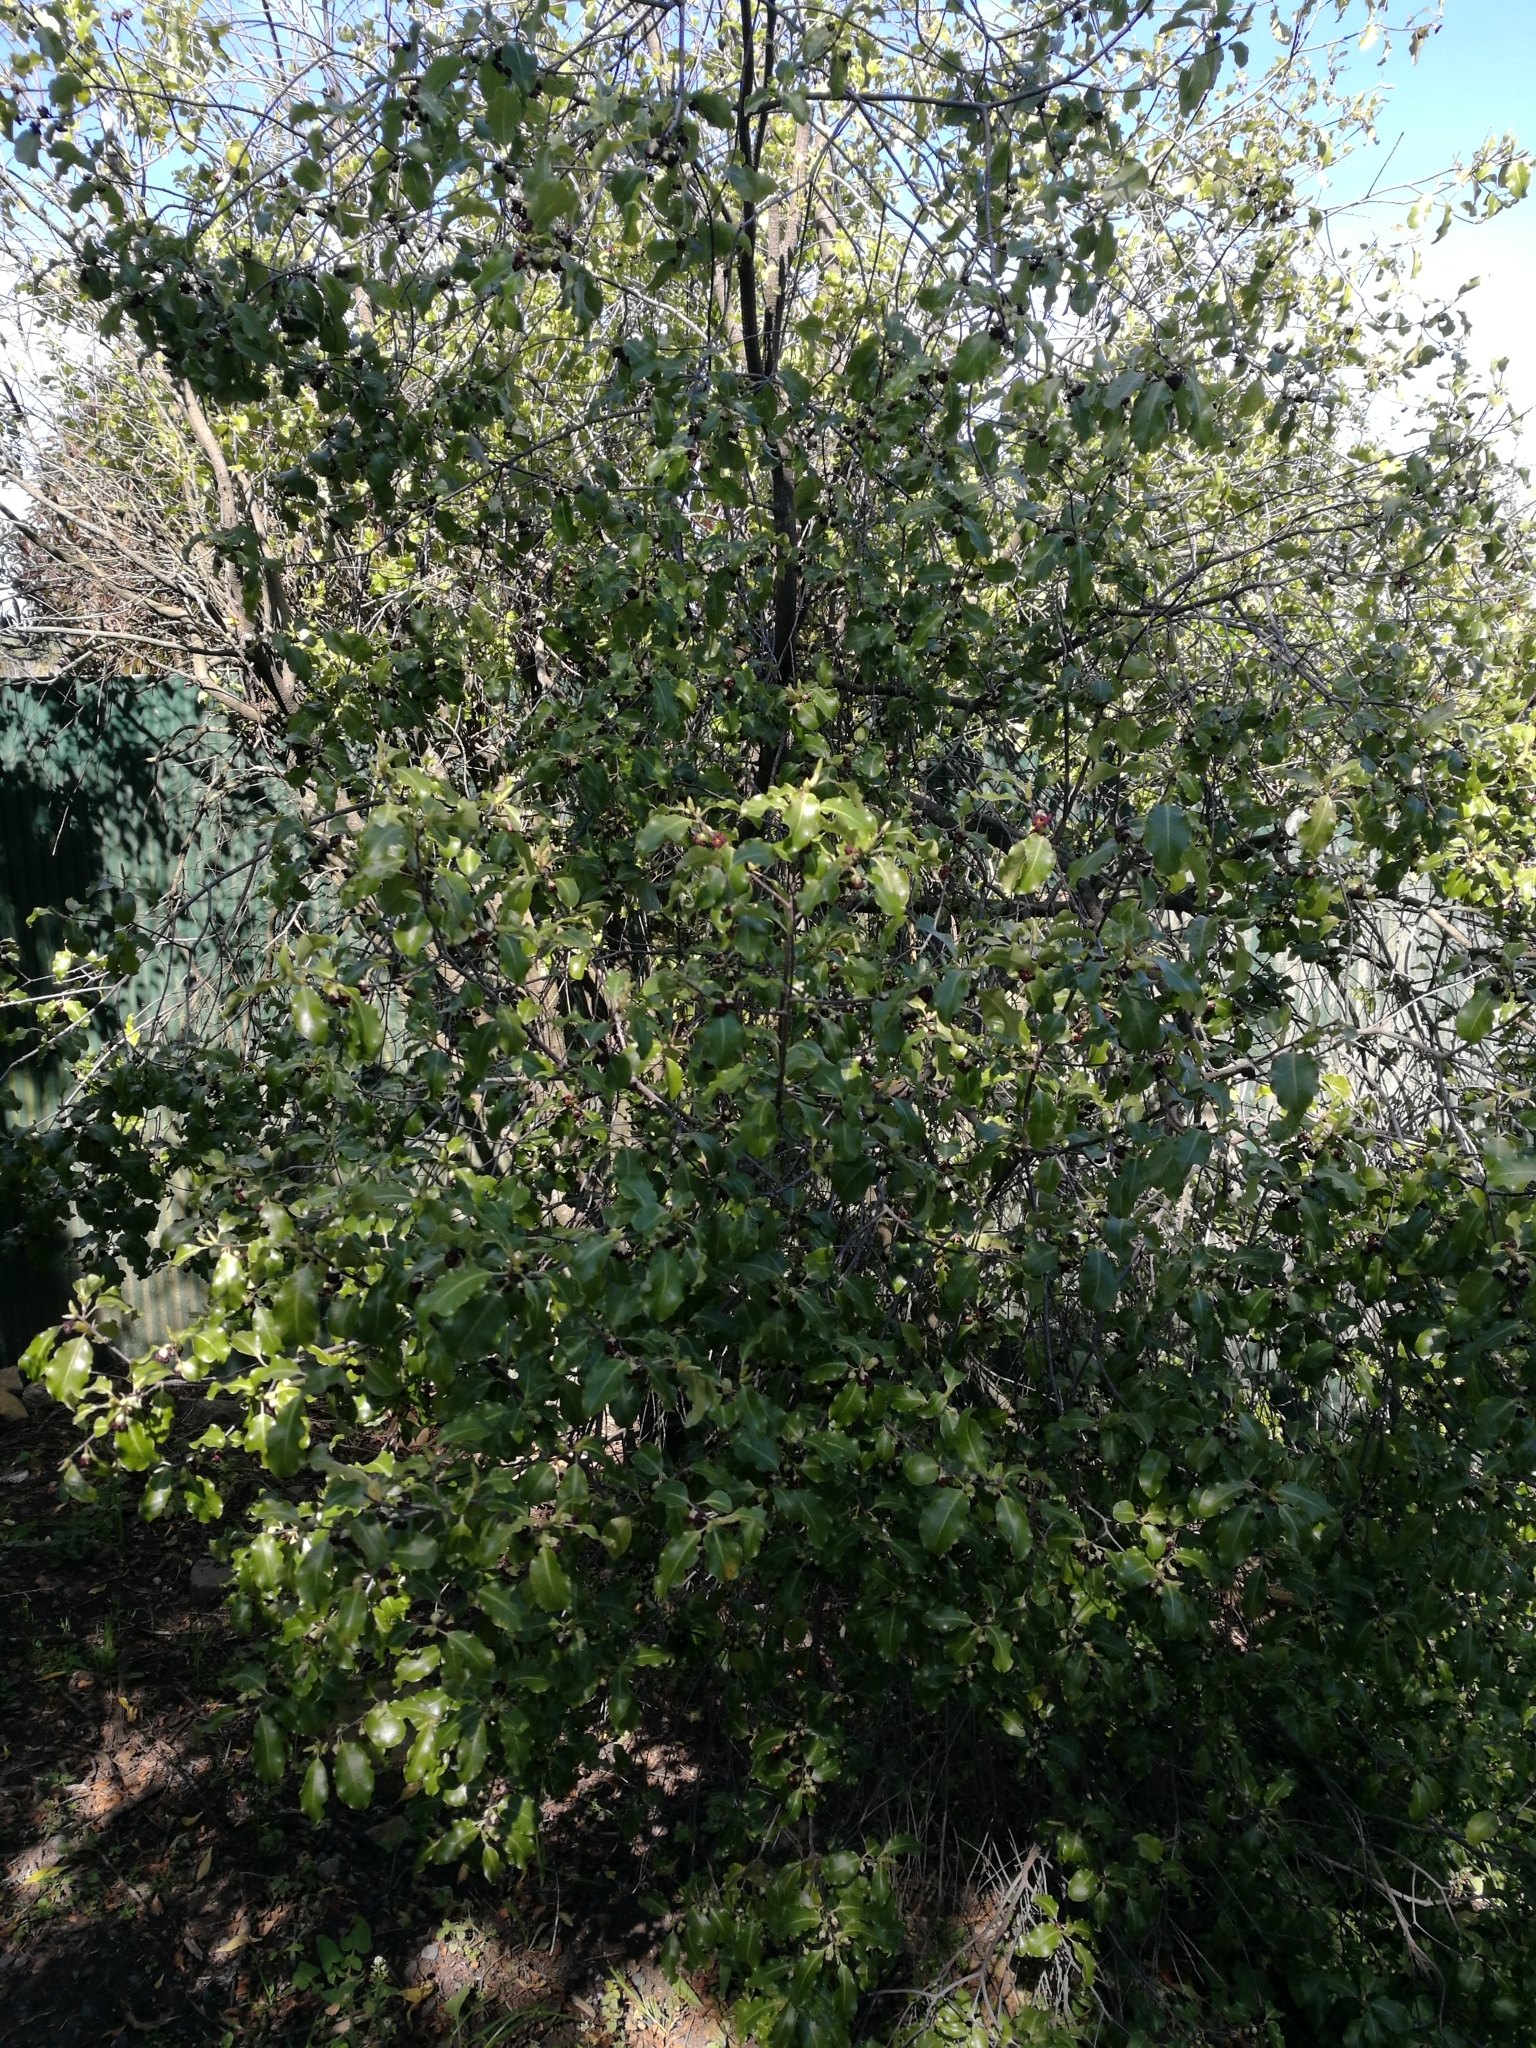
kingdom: Plantae
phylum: Tracheophyta
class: Magnoliopsida
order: Apiales
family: Pittosporaceae
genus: Pittosporum
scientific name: Pittosporum tenuifolium
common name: Kohuhu
